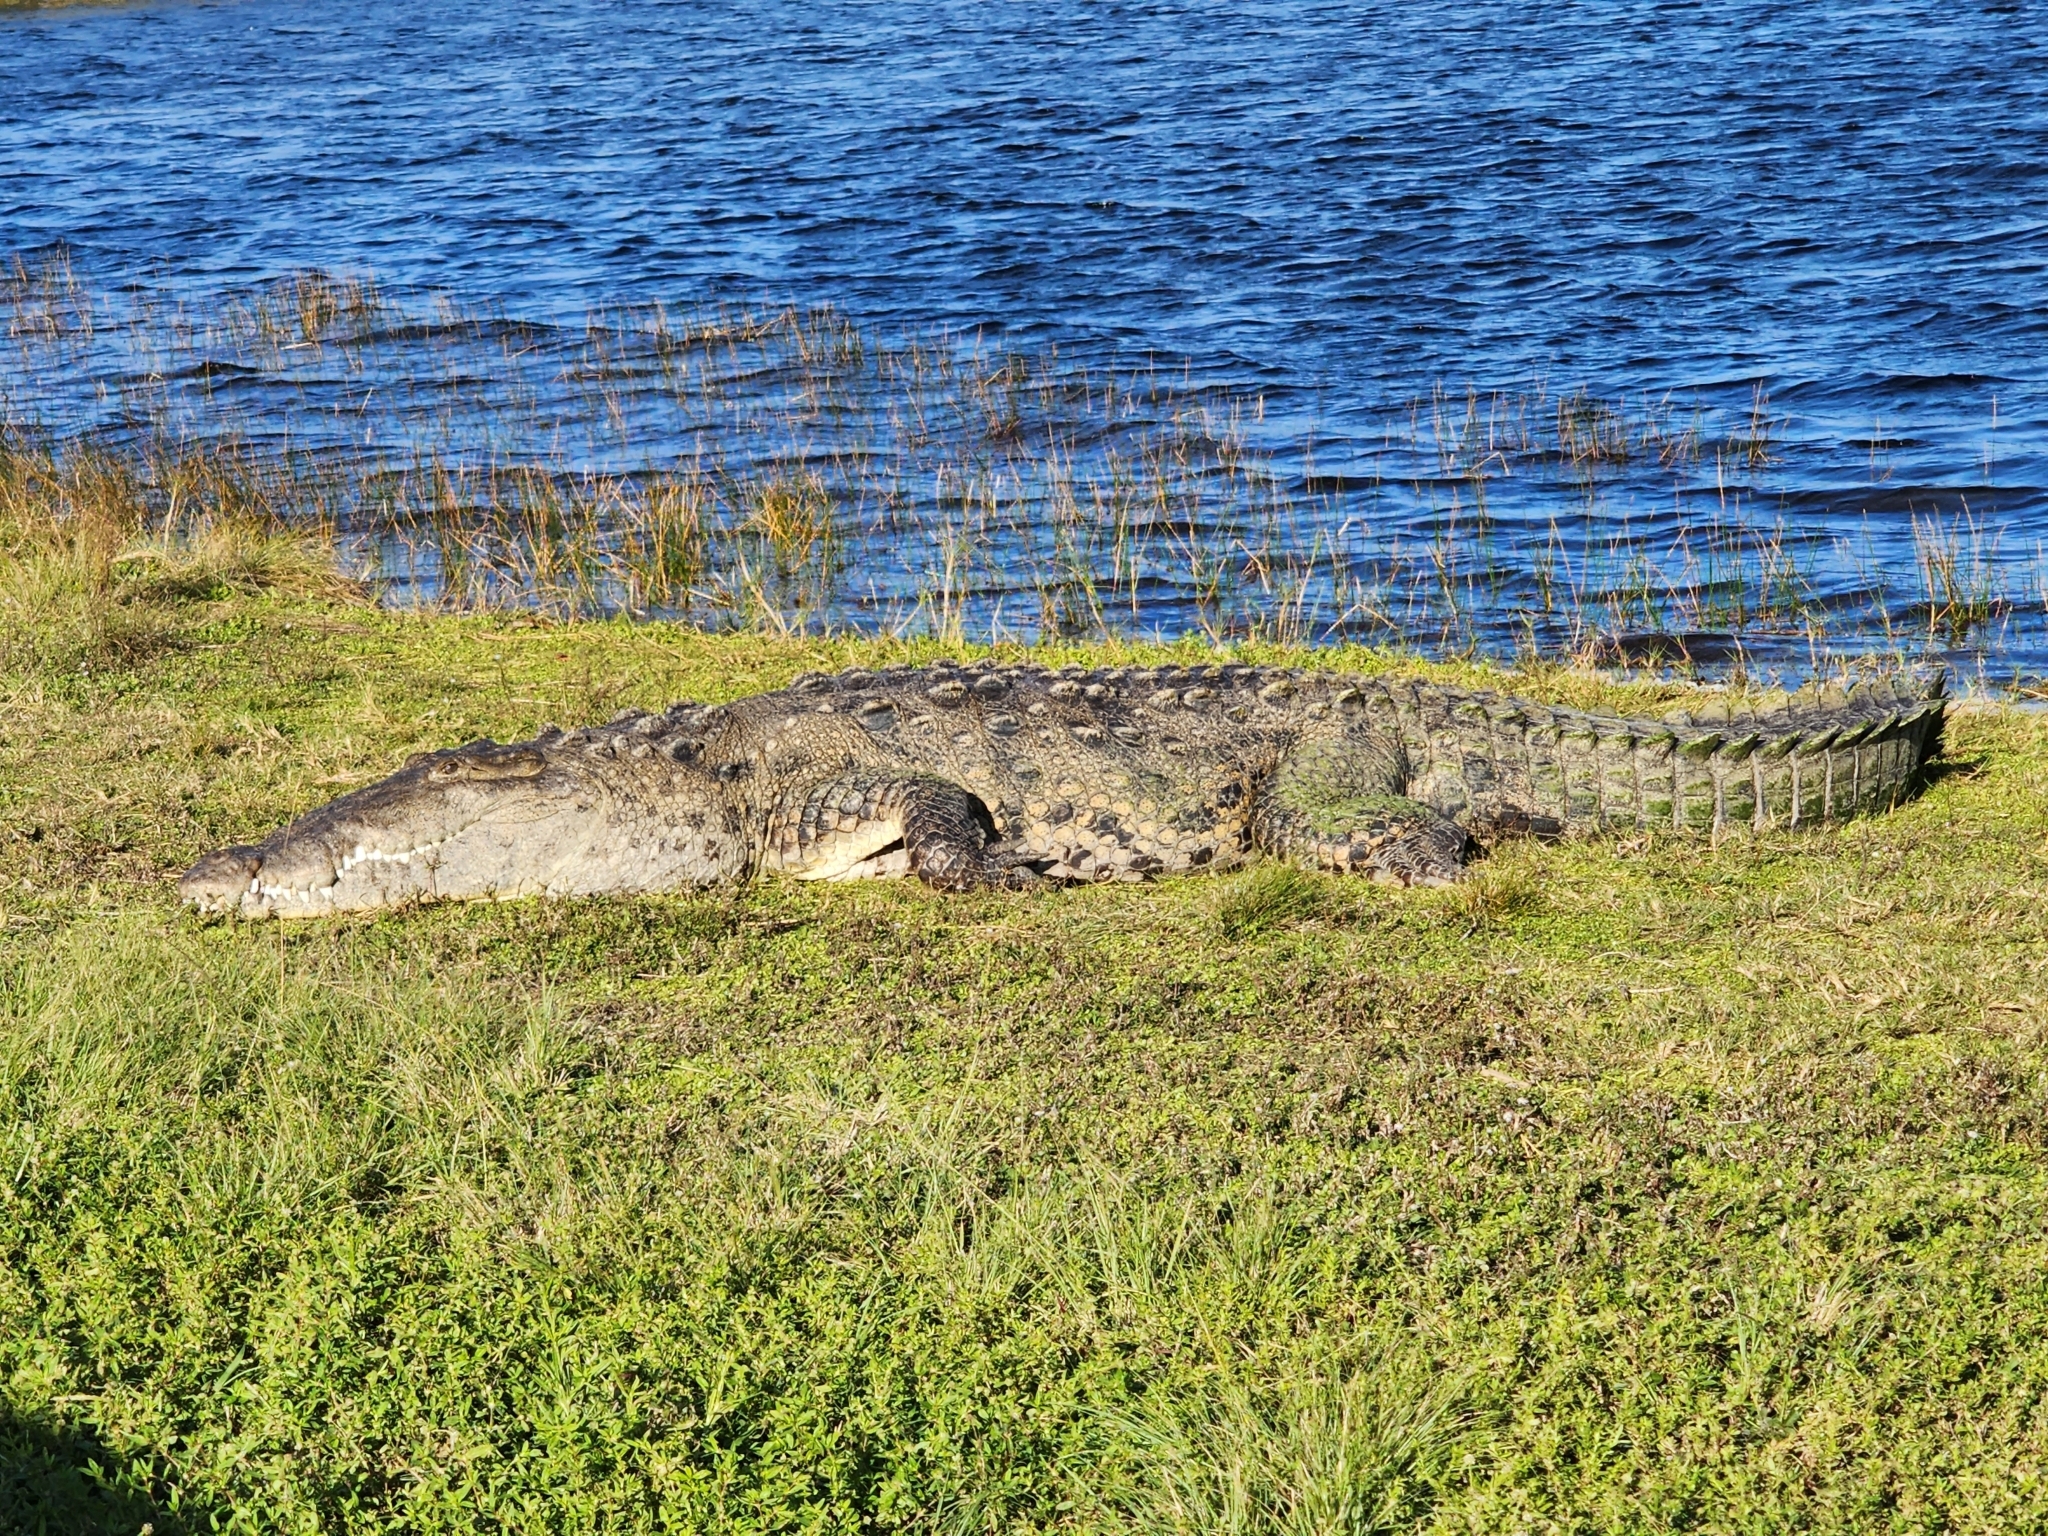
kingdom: Animalia
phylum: Chordata
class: Crocodylia
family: Crocodylidae
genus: Crocodylus
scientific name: Crocodylus acutus
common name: American crocodile
